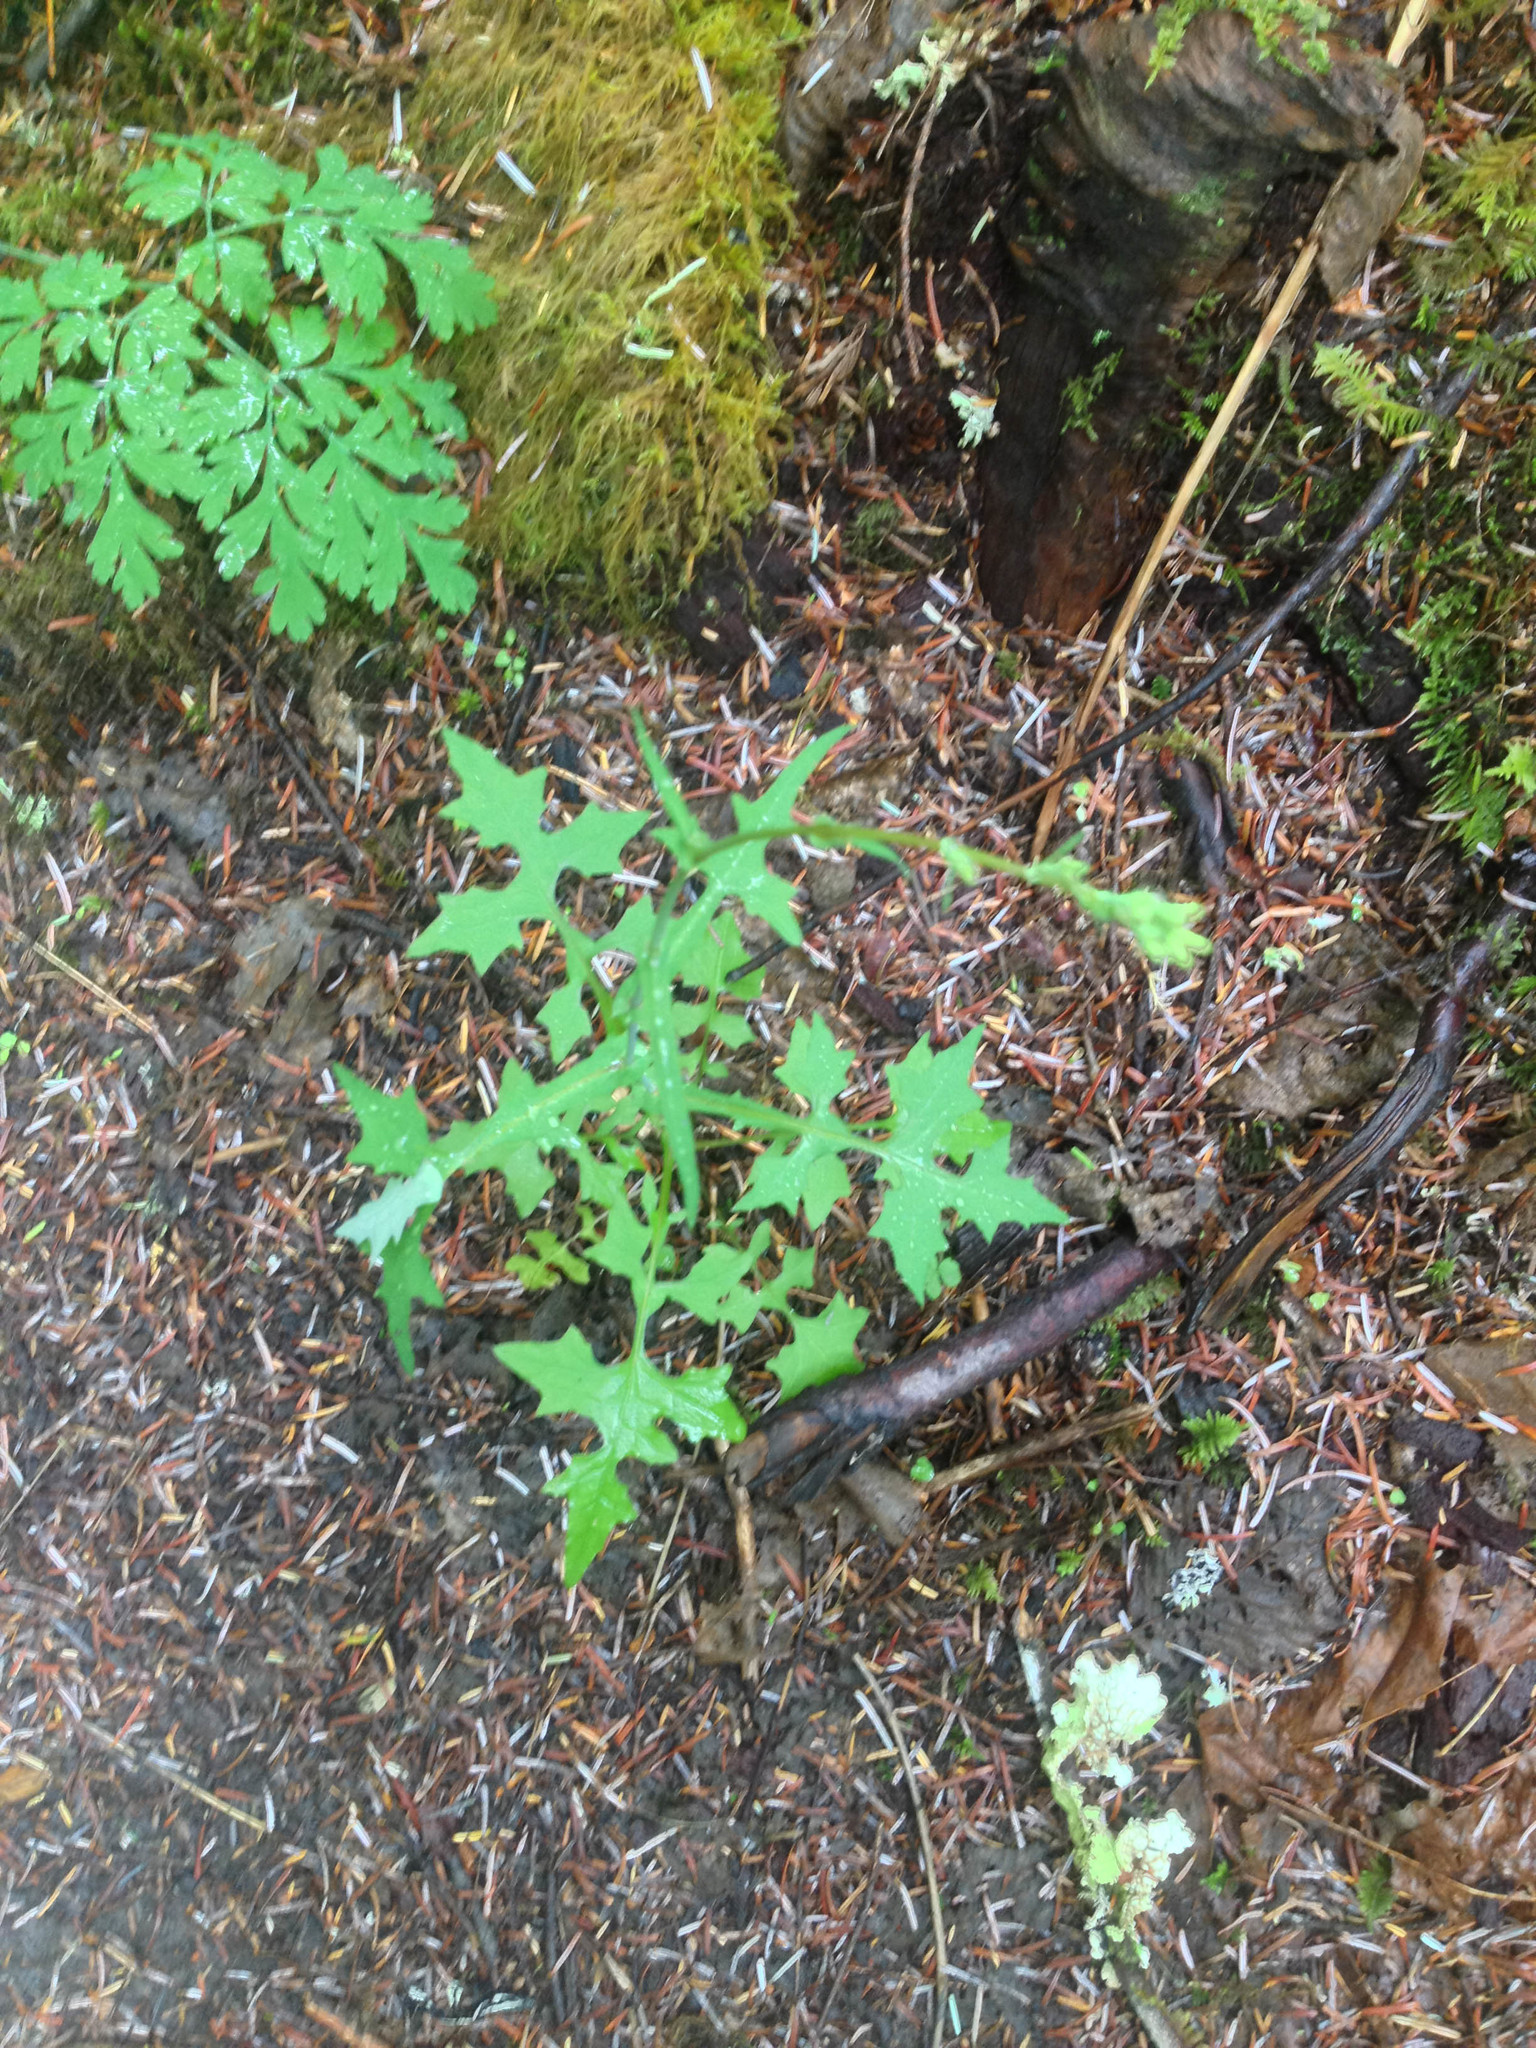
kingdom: Plantae
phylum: Tracheophyta
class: Magnoliopsida
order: Asterales
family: Asteraceae
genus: Mycelis
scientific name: Mycelis muralis
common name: Wall lettuce
